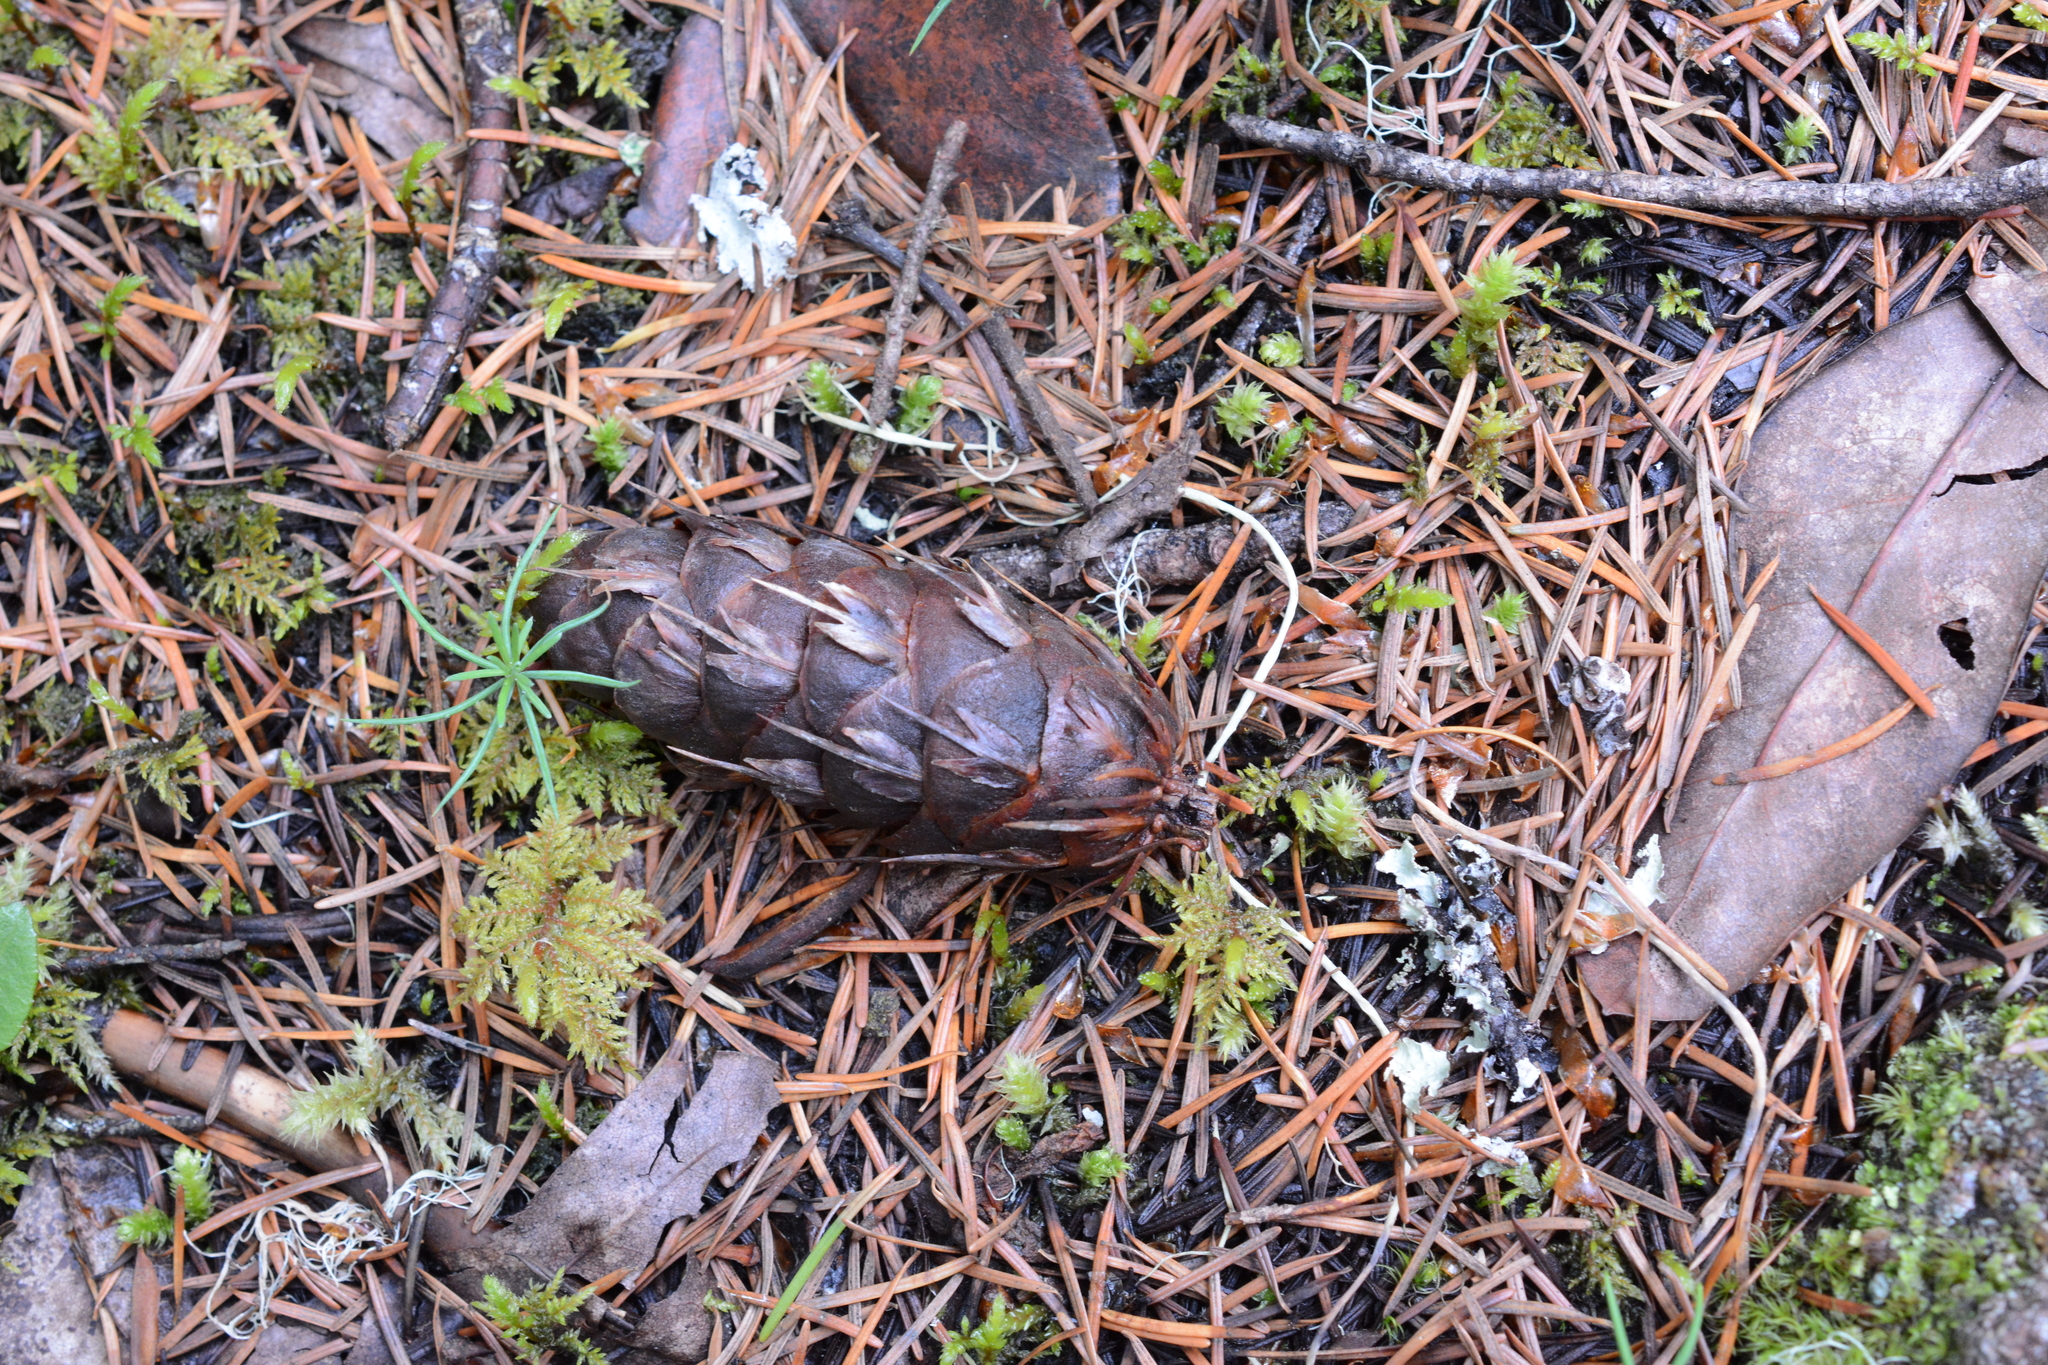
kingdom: Plantae
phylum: Tracheophyta
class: Pinopsida
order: Pinales
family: Pinaceae
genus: Pseudotsuga
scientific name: Pseudotsuga menziesii
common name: Douglas fir
